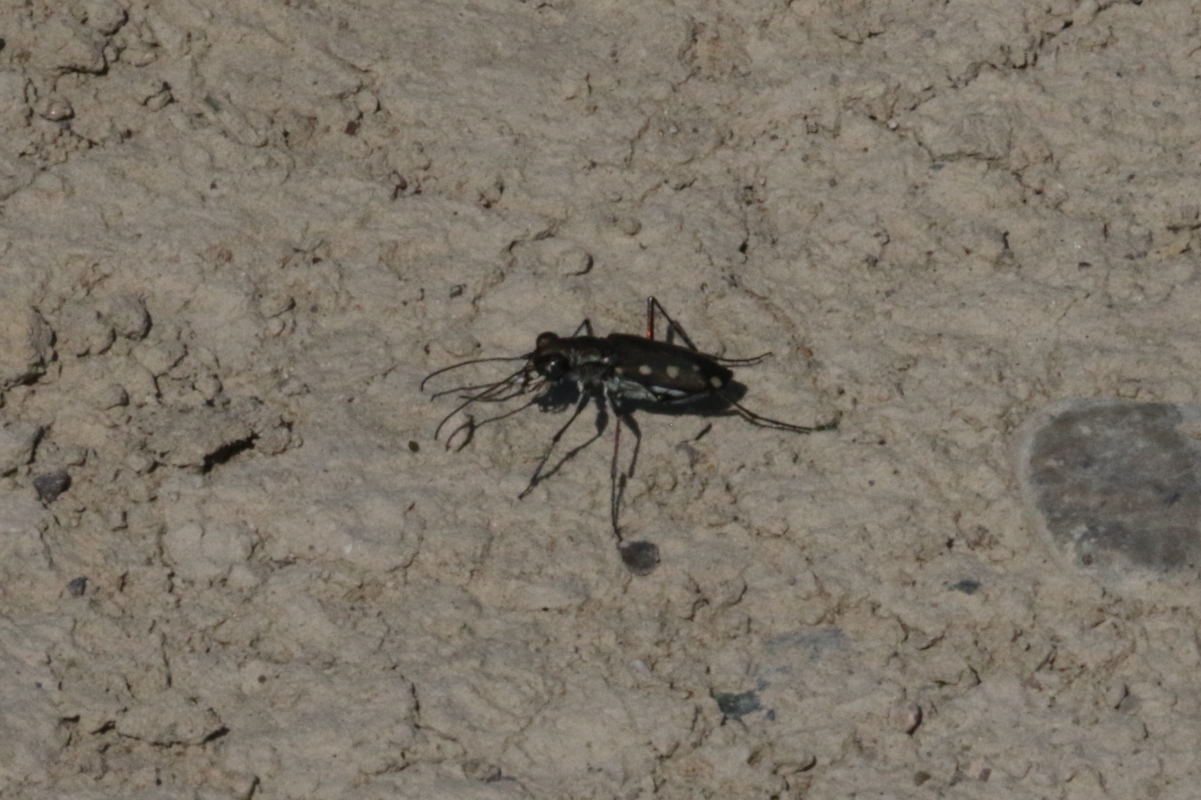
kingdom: Animalia
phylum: Arthropoda
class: Insecta
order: Coleoptera
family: Carabidae
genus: Cicindela
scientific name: Cicindela ocellata
